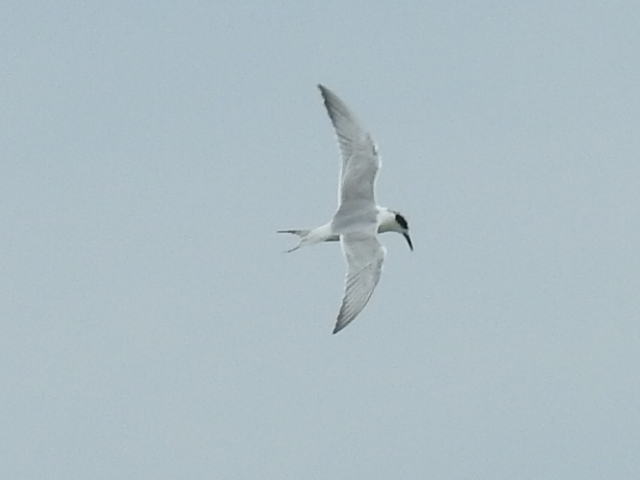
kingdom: Animalia
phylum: Chordata
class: Aves
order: Charadriiformes
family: Laridae
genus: Sterna
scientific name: Sterna forsteri
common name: Forster's tern
